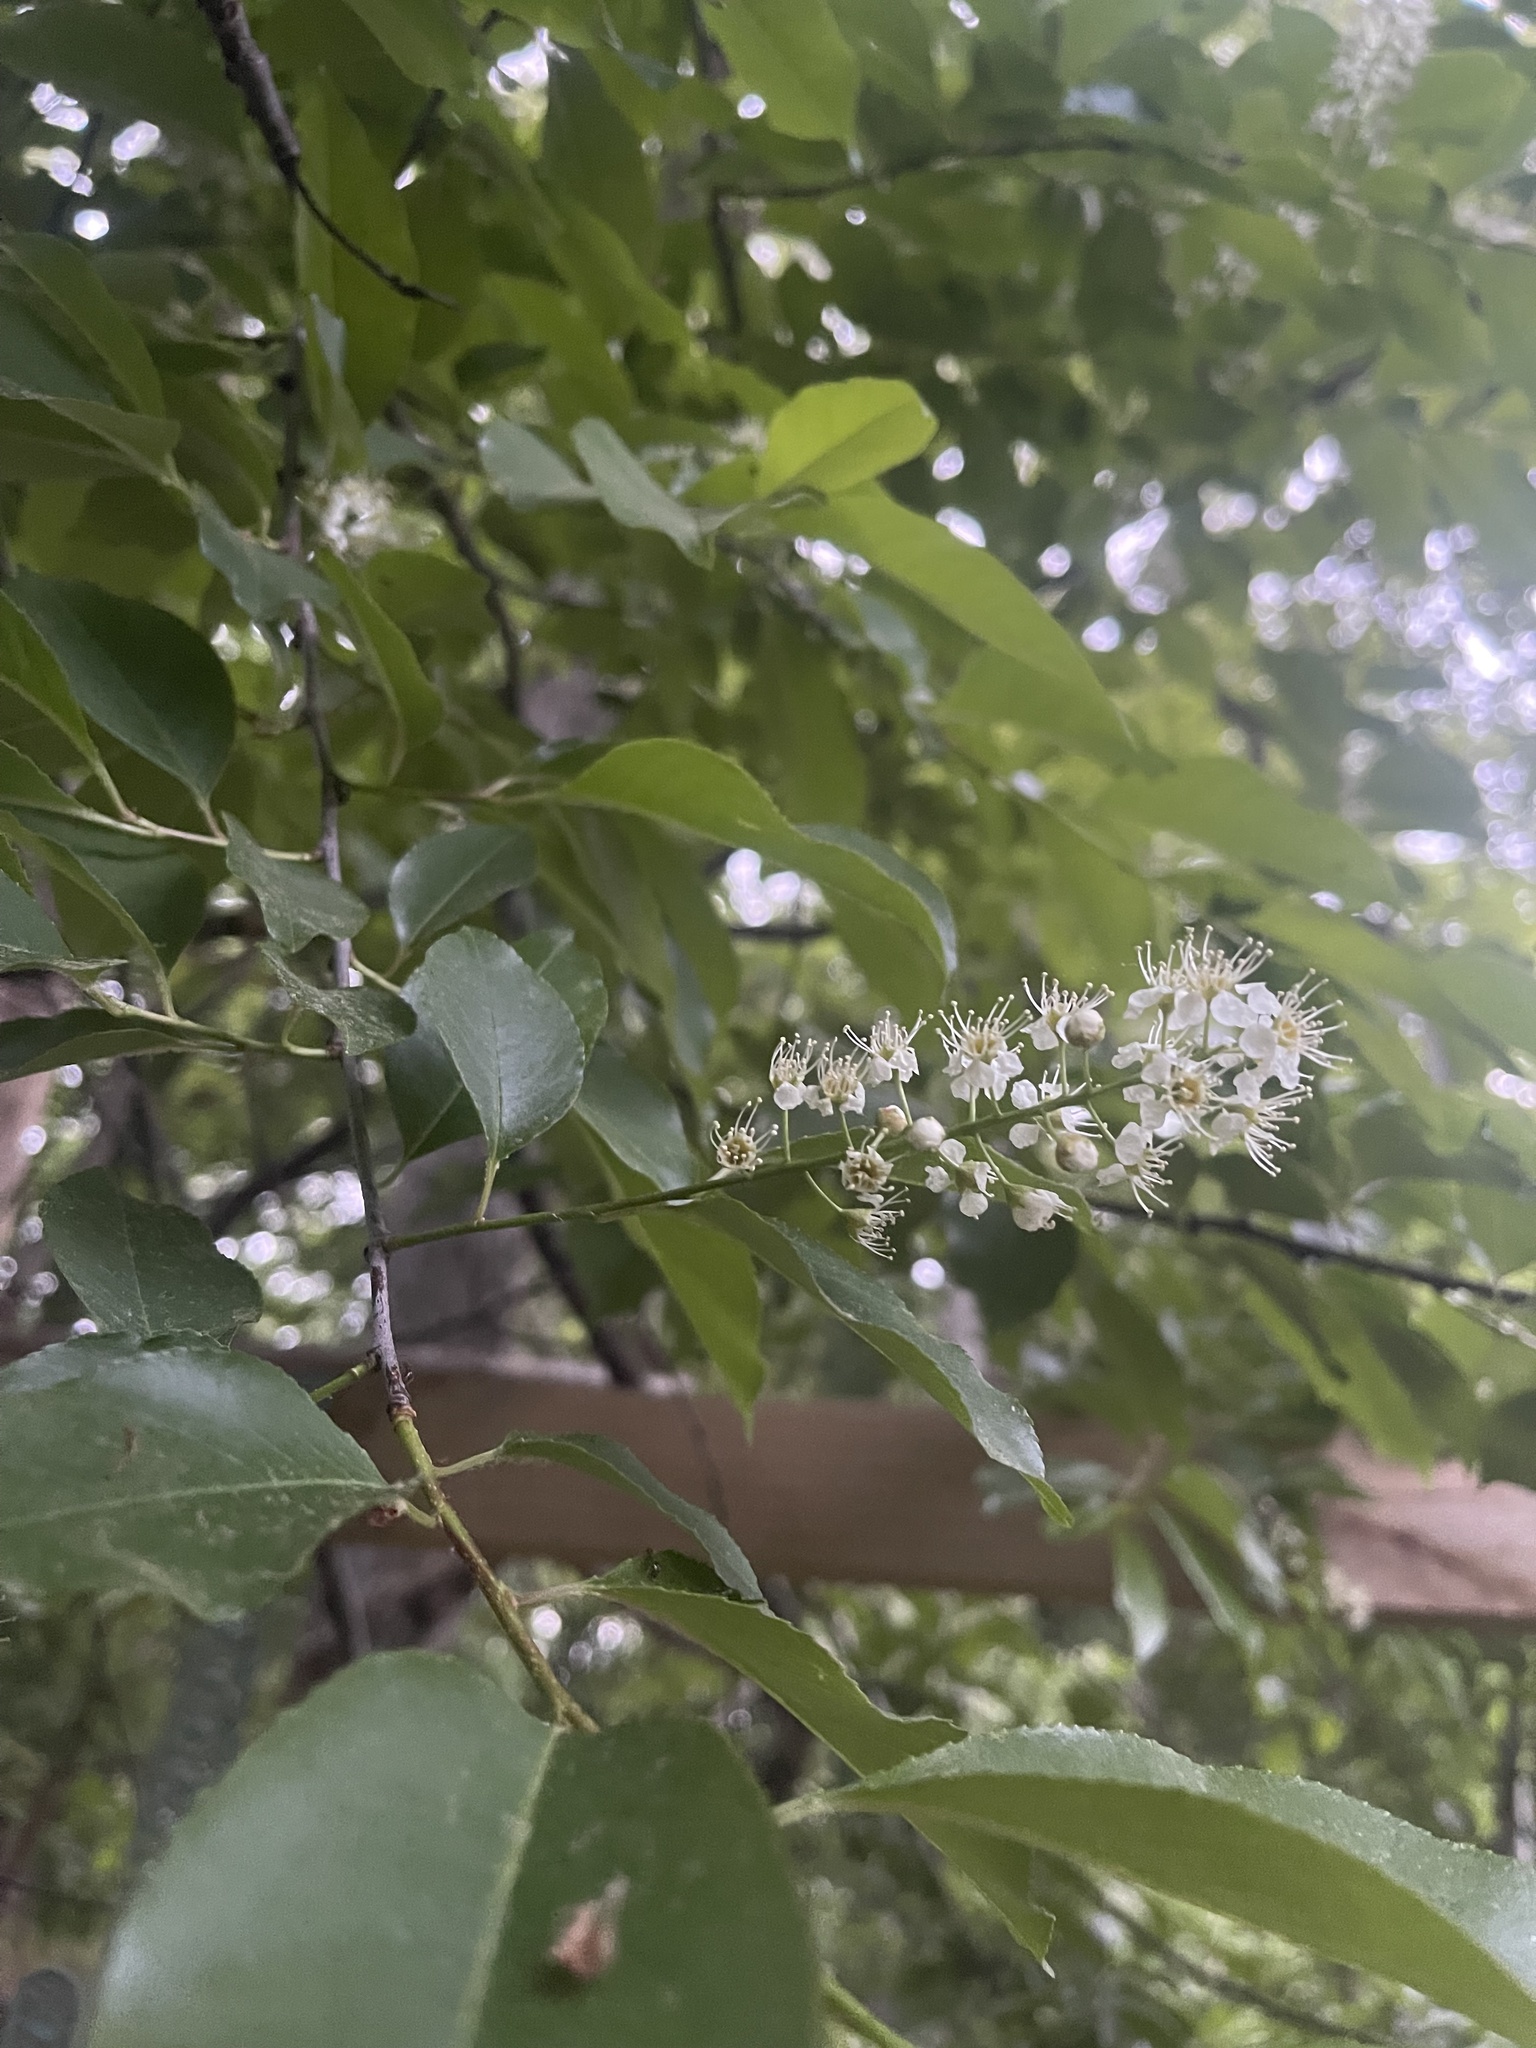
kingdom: Plantae
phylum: Tracheophyta
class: Magnoliopsida
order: Rosales
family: Rosaceae
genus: Prunus
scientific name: Prunus serotina
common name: Black cherry
